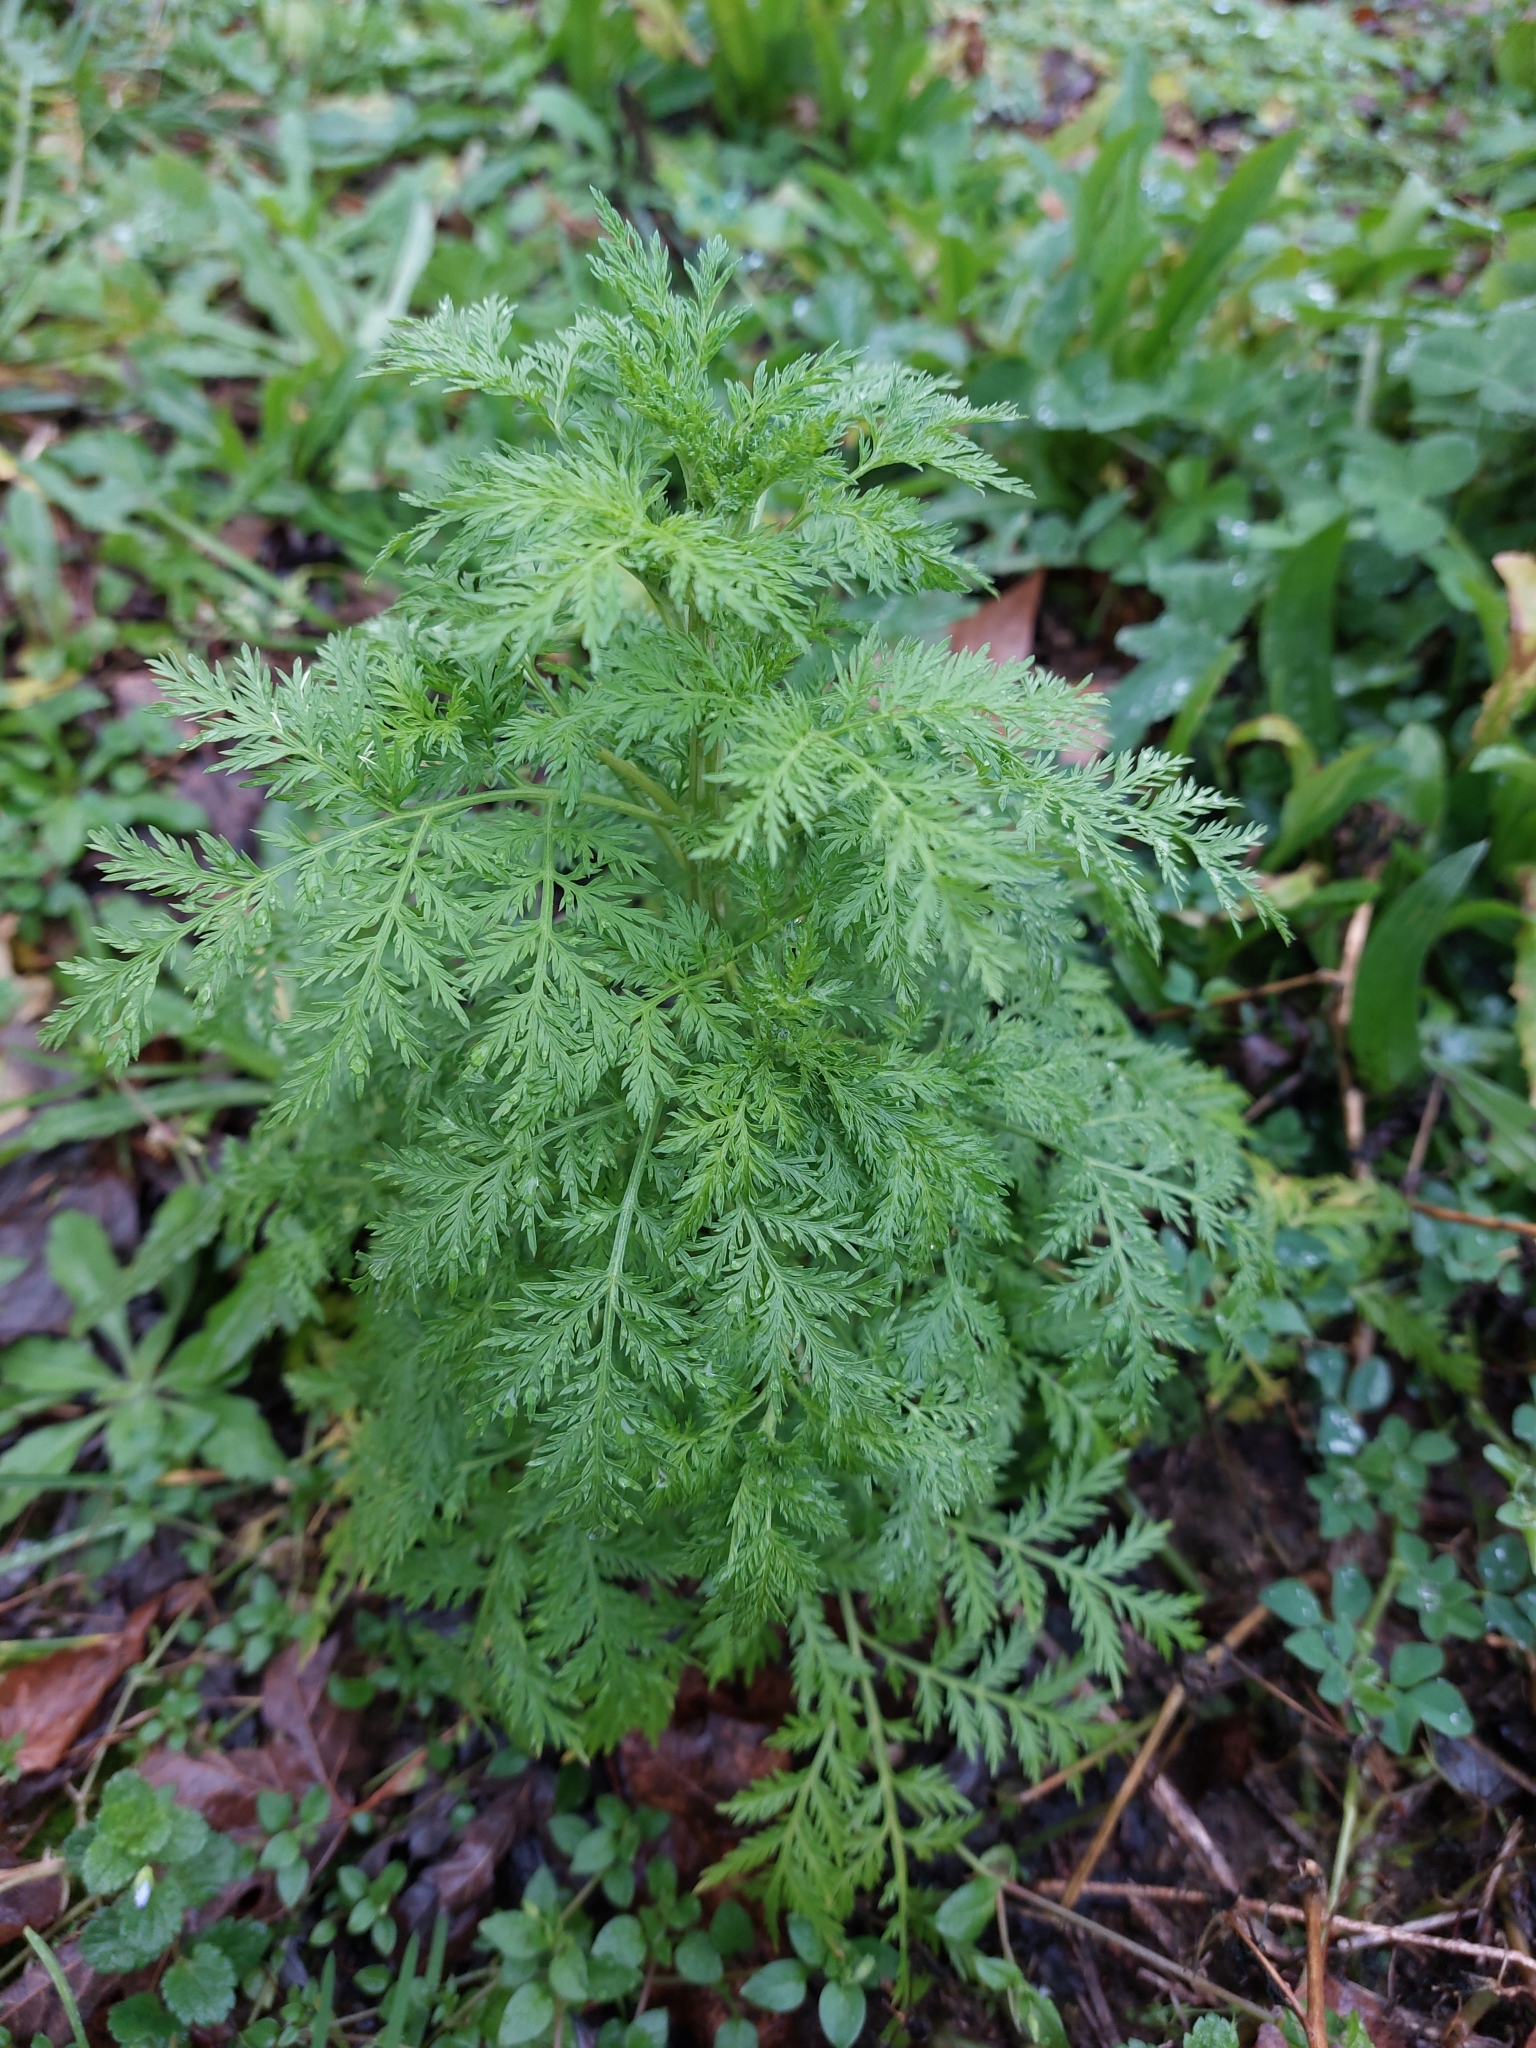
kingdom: Plantae
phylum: Tracheophyta
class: Magnoliopsida
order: Asterales
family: Asteraceae
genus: Artemisia
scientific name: Artemisia annua
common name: Sweet sagewort
